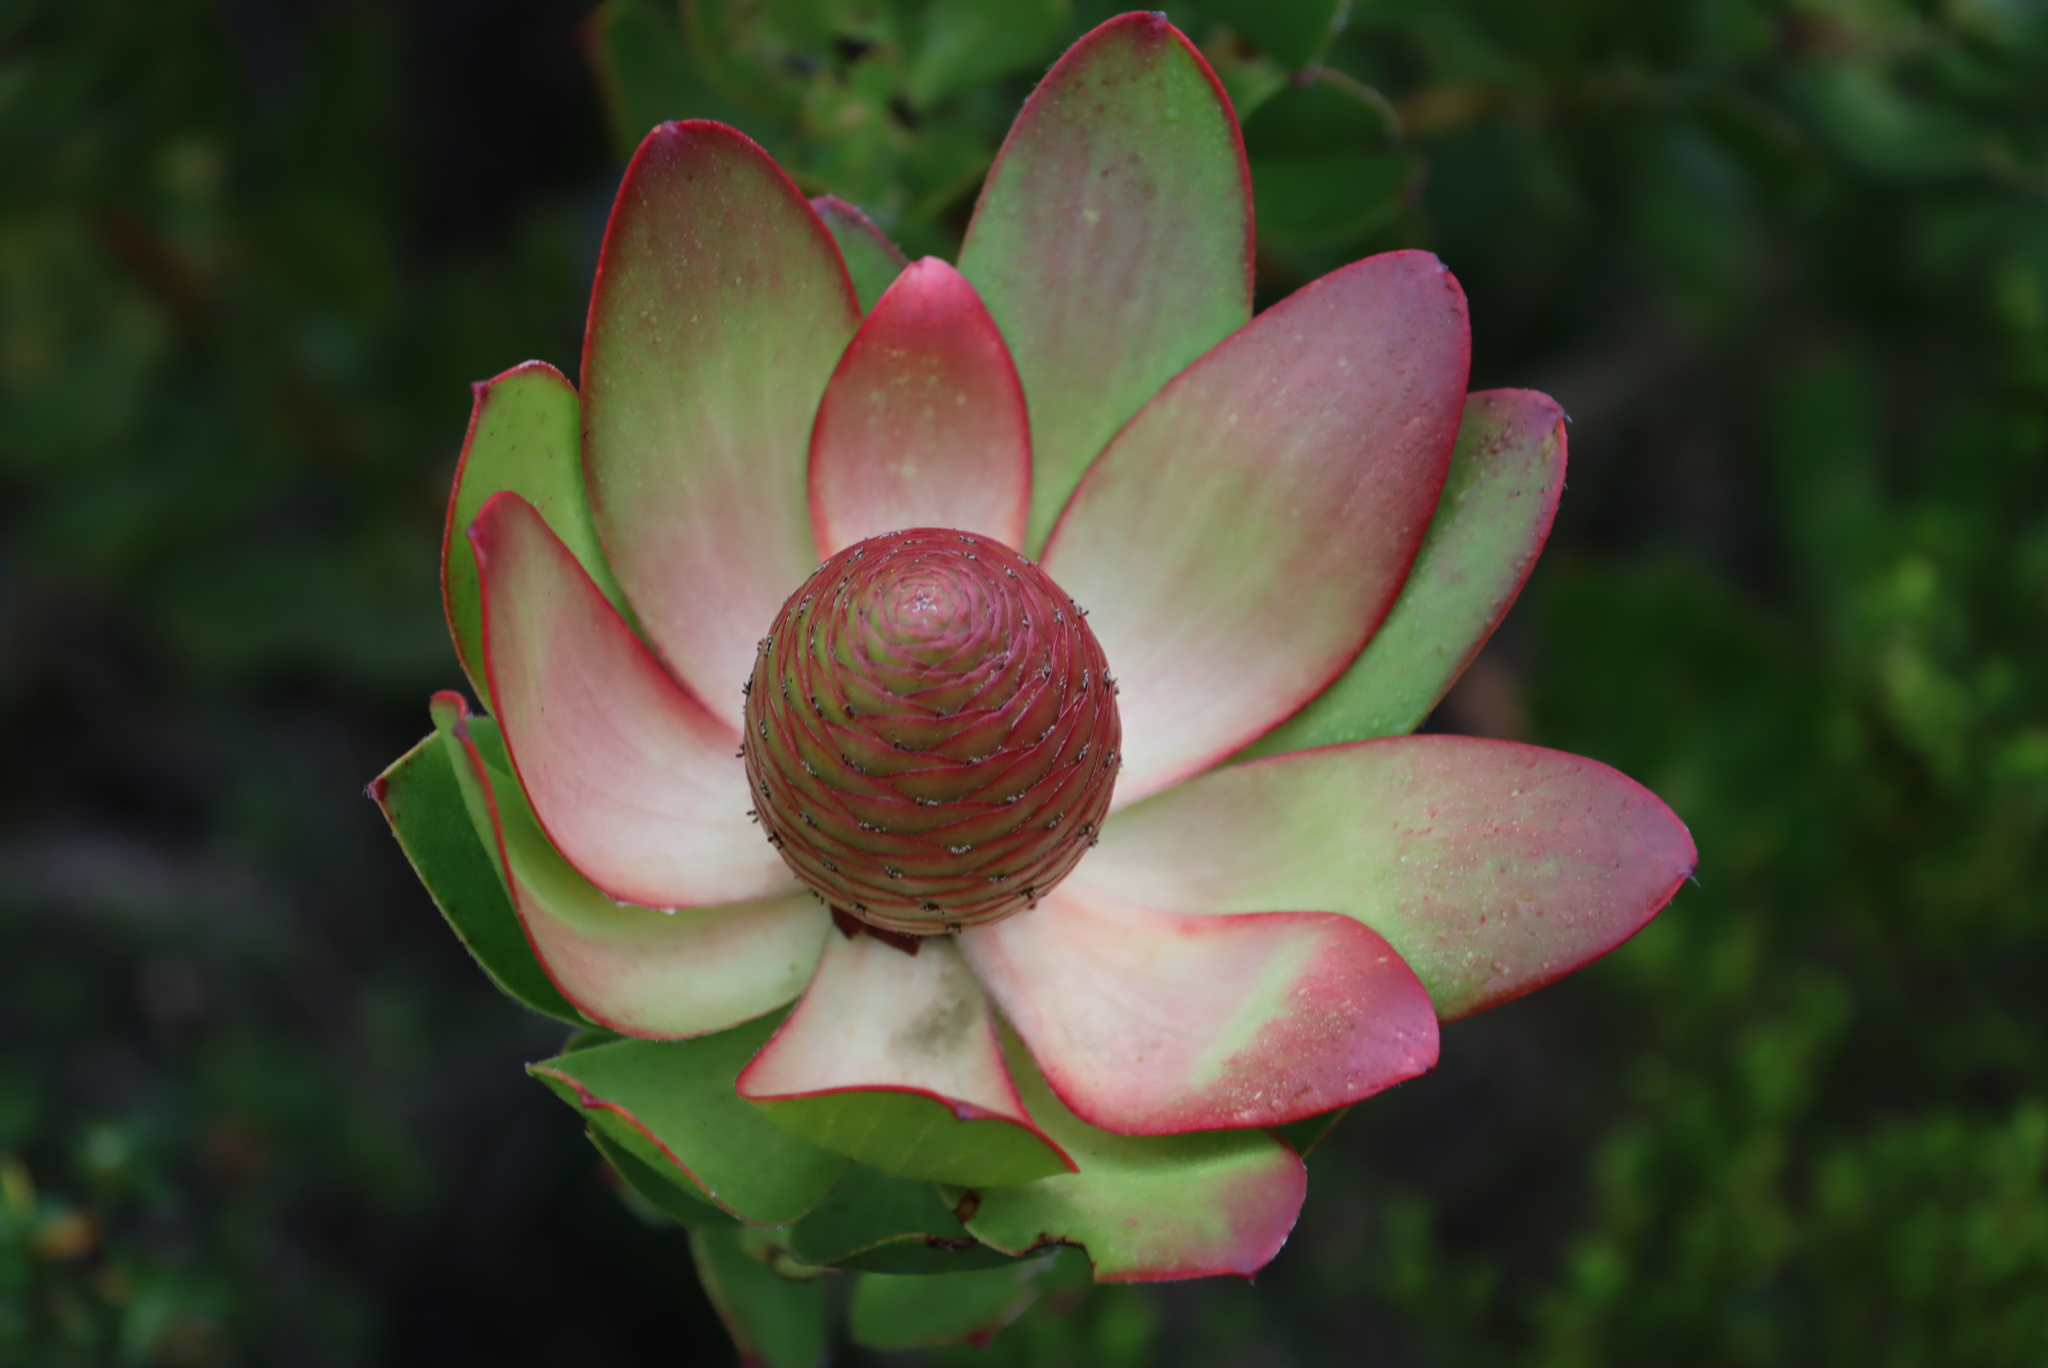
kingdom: Plantae
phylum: Tracheophyta
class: Magnoliopsida
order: Proteales
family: Proteaceae
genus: Leucadendron
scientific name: Leucadendron strobilinum
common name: Mountain rose
